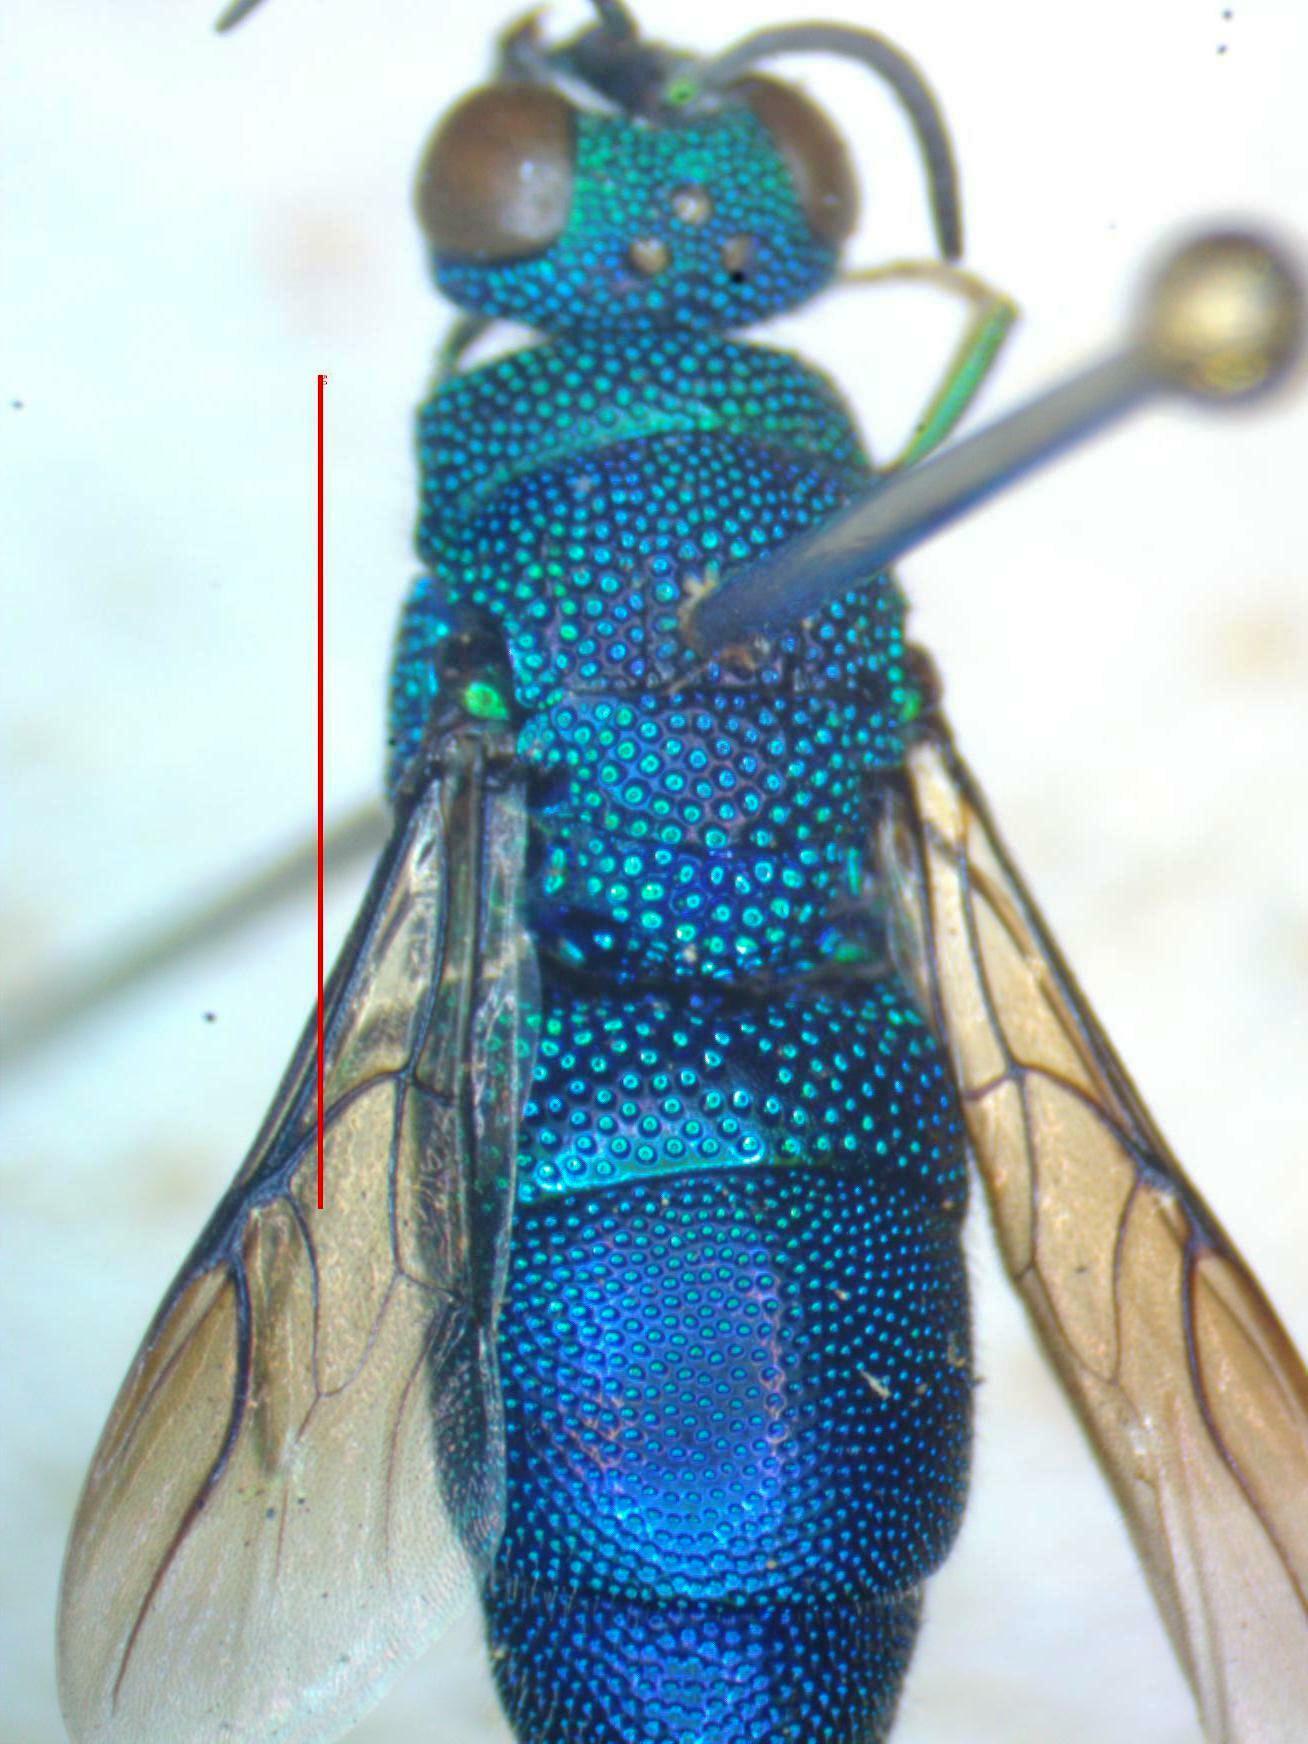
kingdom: Animalia
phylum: Arthropoda
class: Insecta
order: Hymenoptera
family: Chrysididae
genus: Neochrysis
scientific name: Neochrysis
